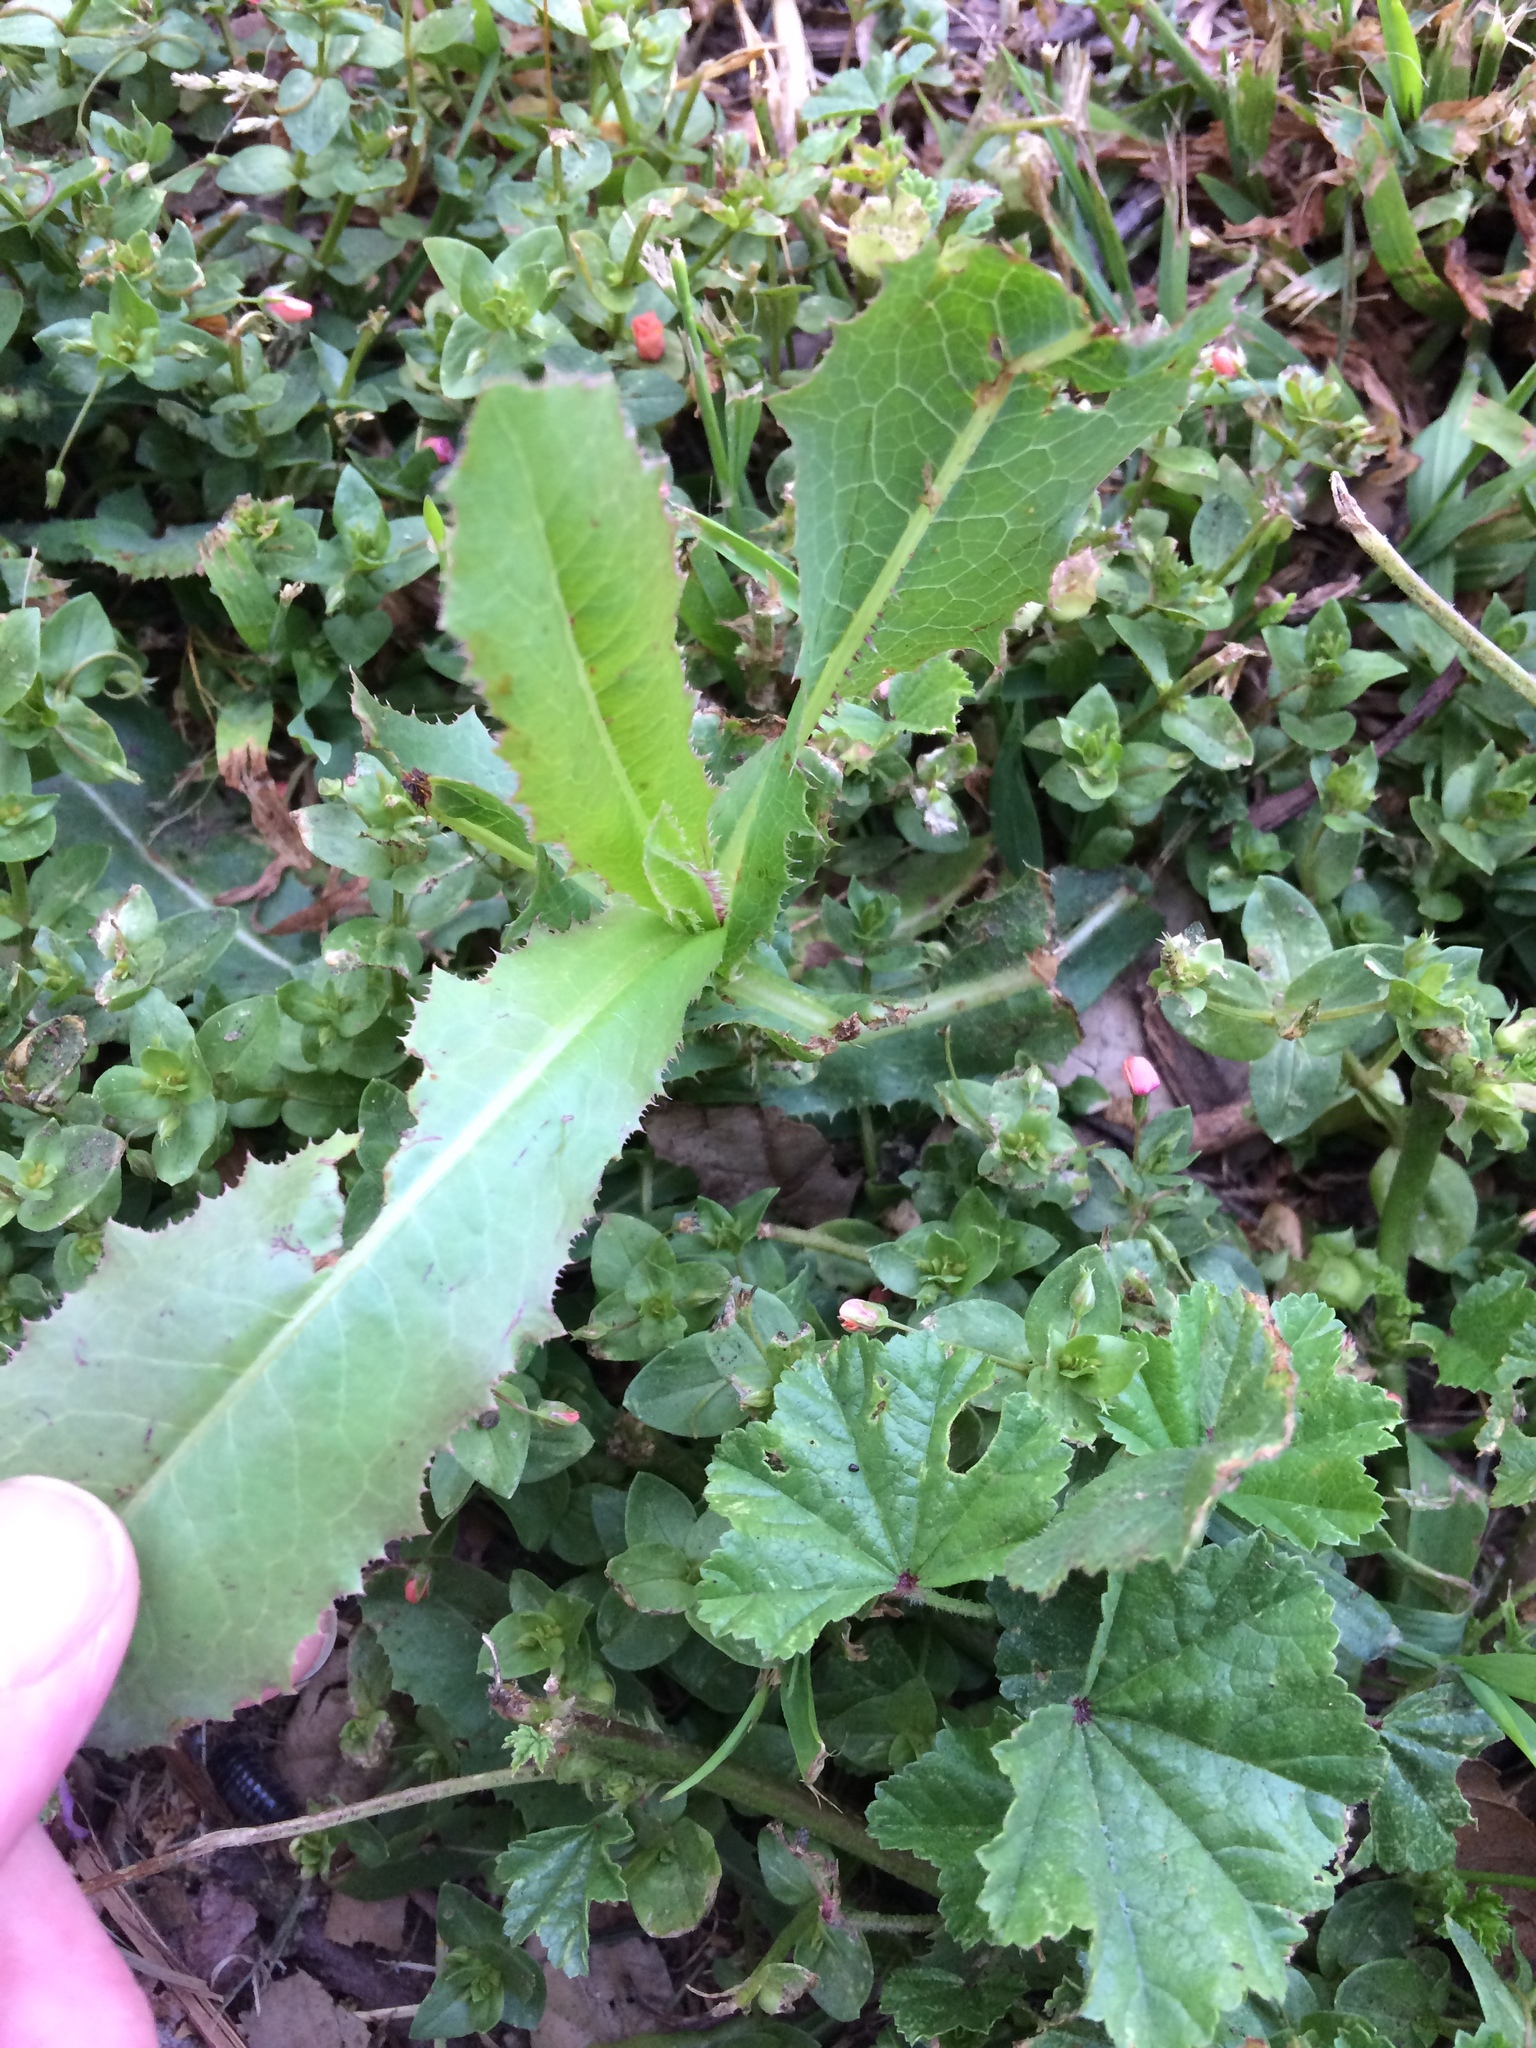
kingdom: Plantae
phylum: Tracheophyta
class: Magnoliopsida
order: Asterales
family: Asteraceae
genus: Lactuca
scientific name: Lactuca serriola
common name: Prickly lettuce
